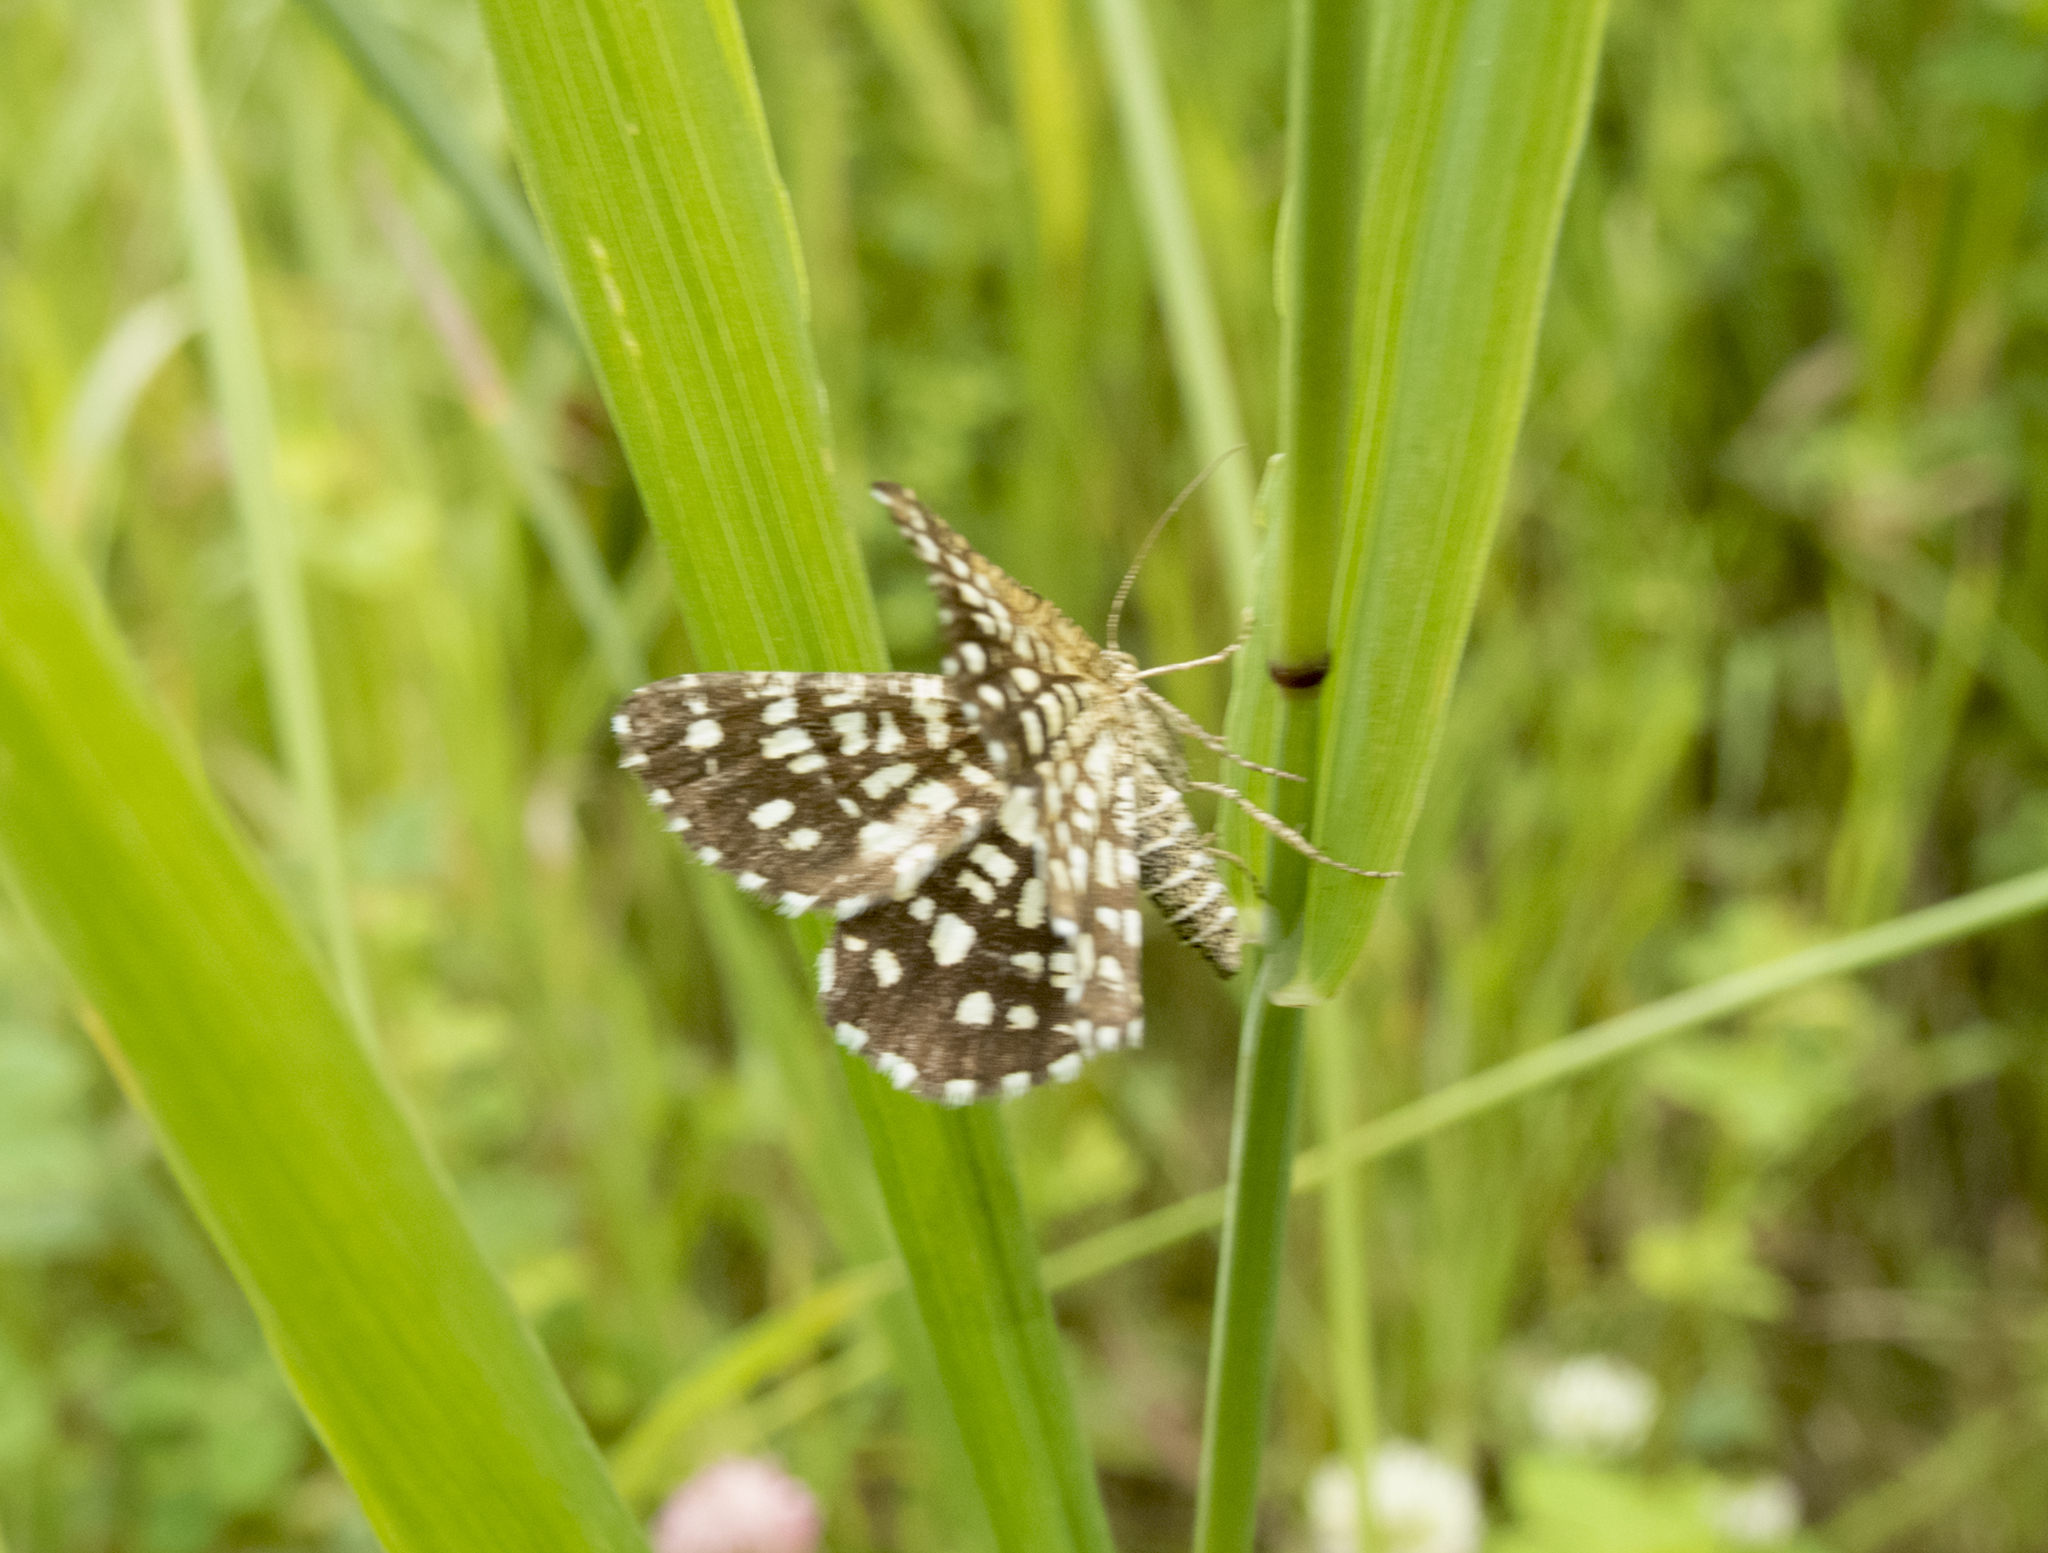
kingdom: Animalia
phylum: Arthropoda
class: Insecta
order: Lepidoptera
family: Geometridae
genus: Chiasmia
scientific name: Chiasmia clathrata
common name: Latticed heath
